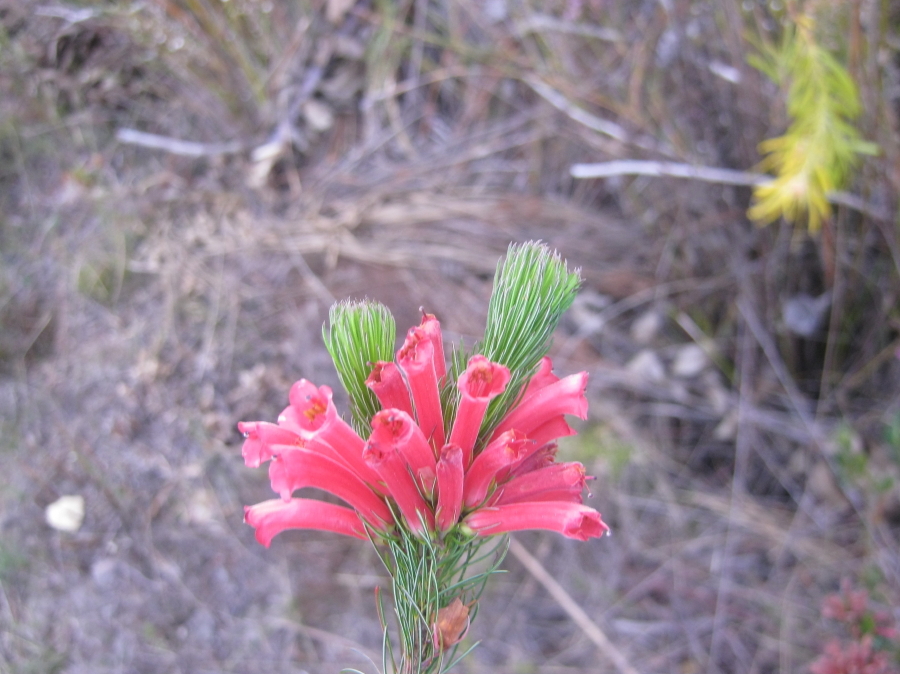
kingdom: Plantae
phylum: Tracheophyta
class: Magnoliopsida
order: Ericales
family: Ericaceae
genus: Erica
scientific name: Erica vestita
